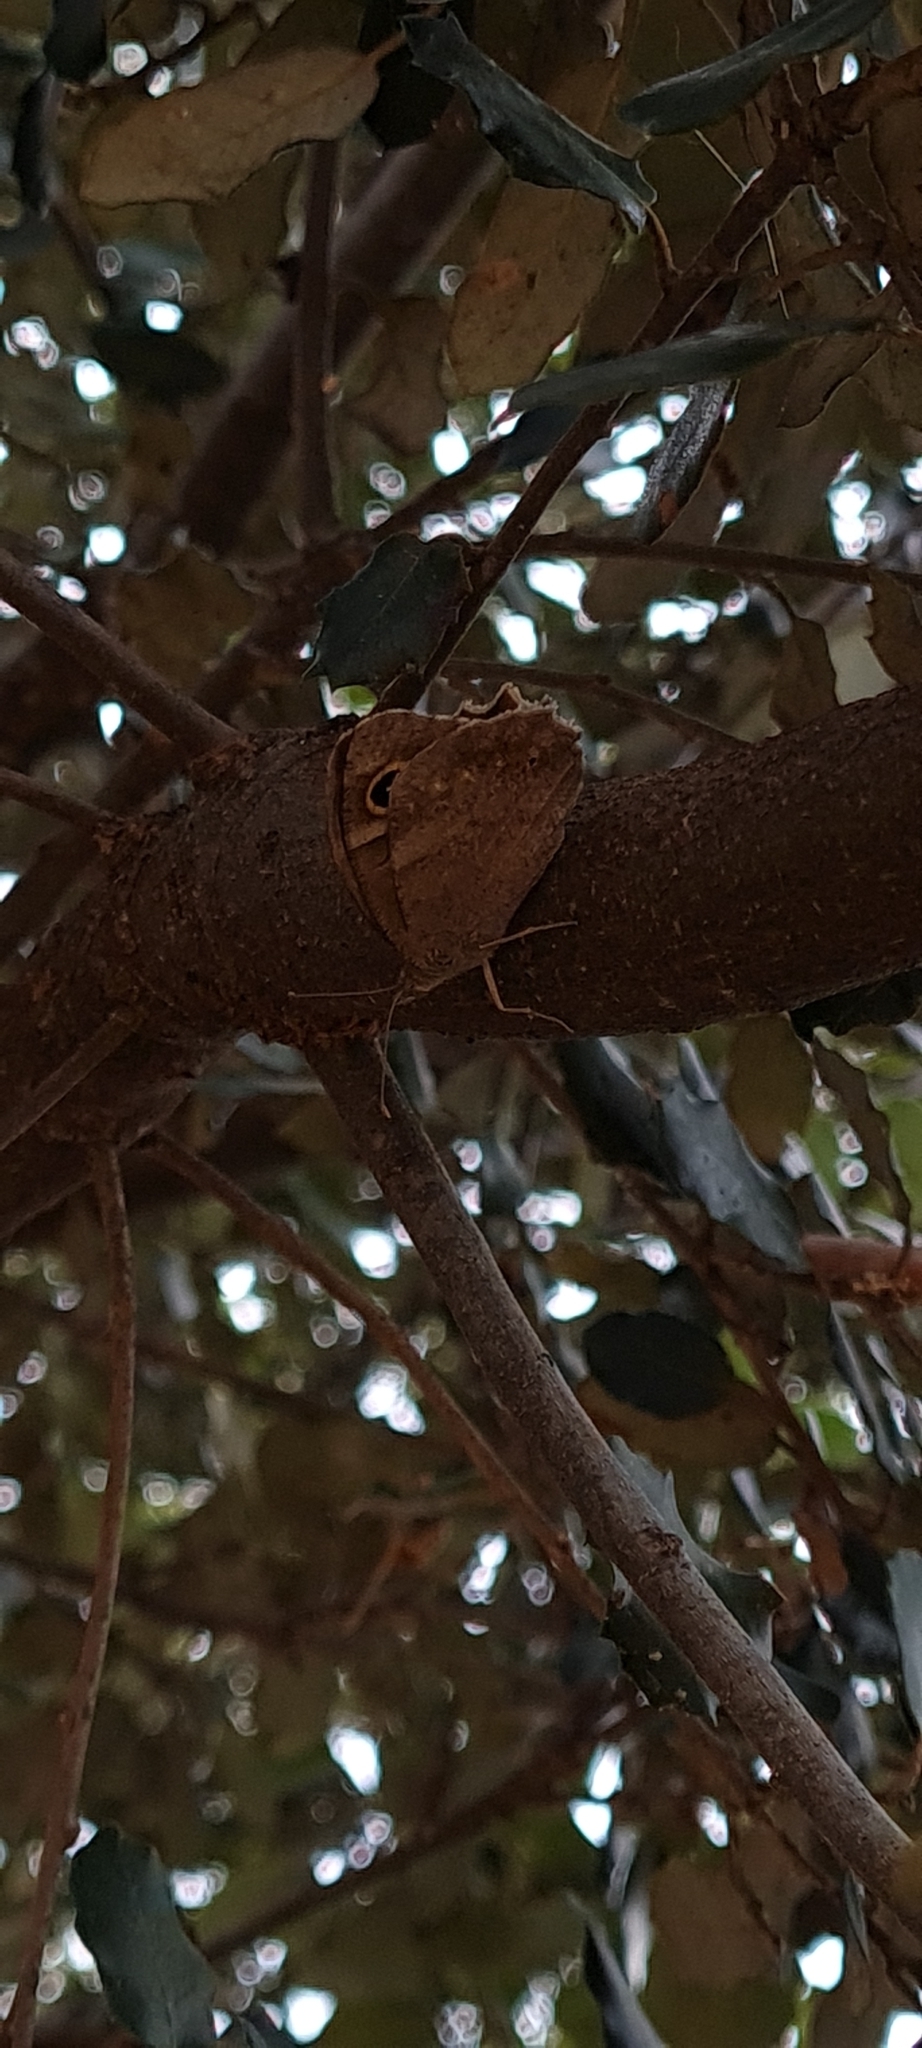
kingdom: Animalia
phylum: Arthropoda
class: Insecta
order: Lepidoptera
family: Nymphalidae
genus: Hipparchia
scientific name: Hipparchia statilinus
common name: Tree grayling
